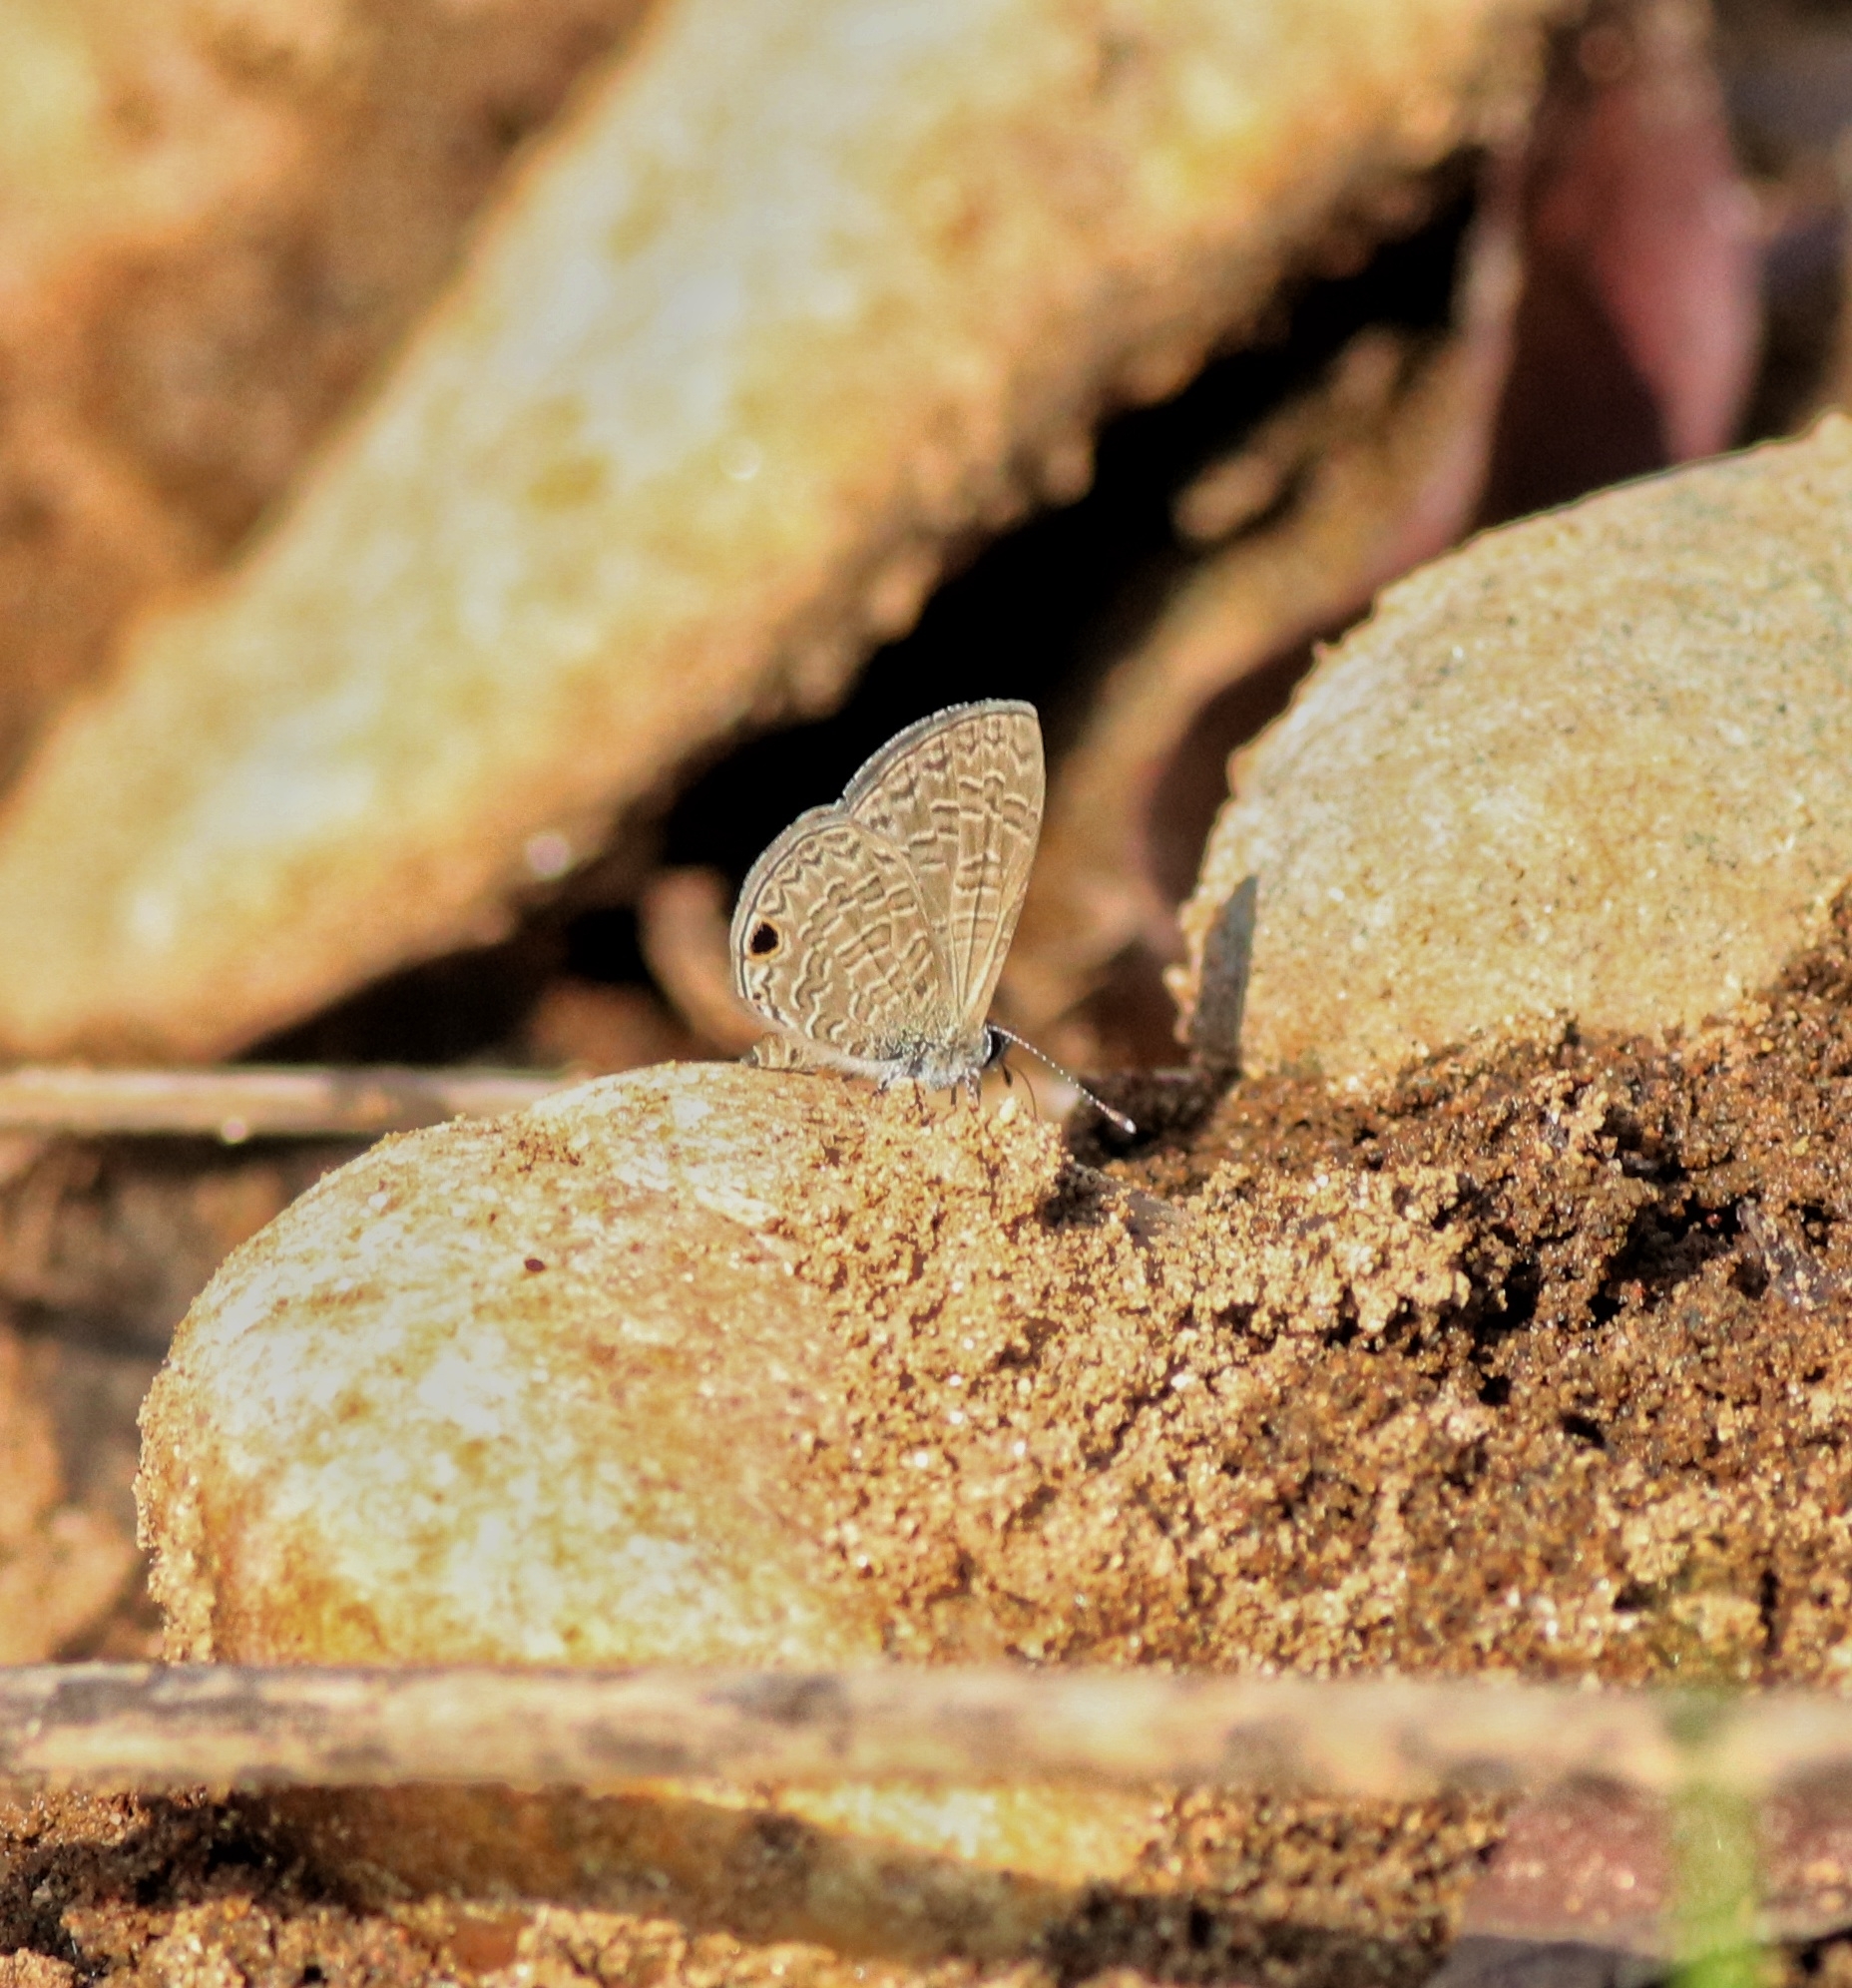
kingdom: Animalia
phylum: Arthropoda
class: Insecta
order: Lepidoptera
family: Lycaenidae
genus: Prosotas
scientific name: Prosotas dubiosa
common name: Tailless lineblue
